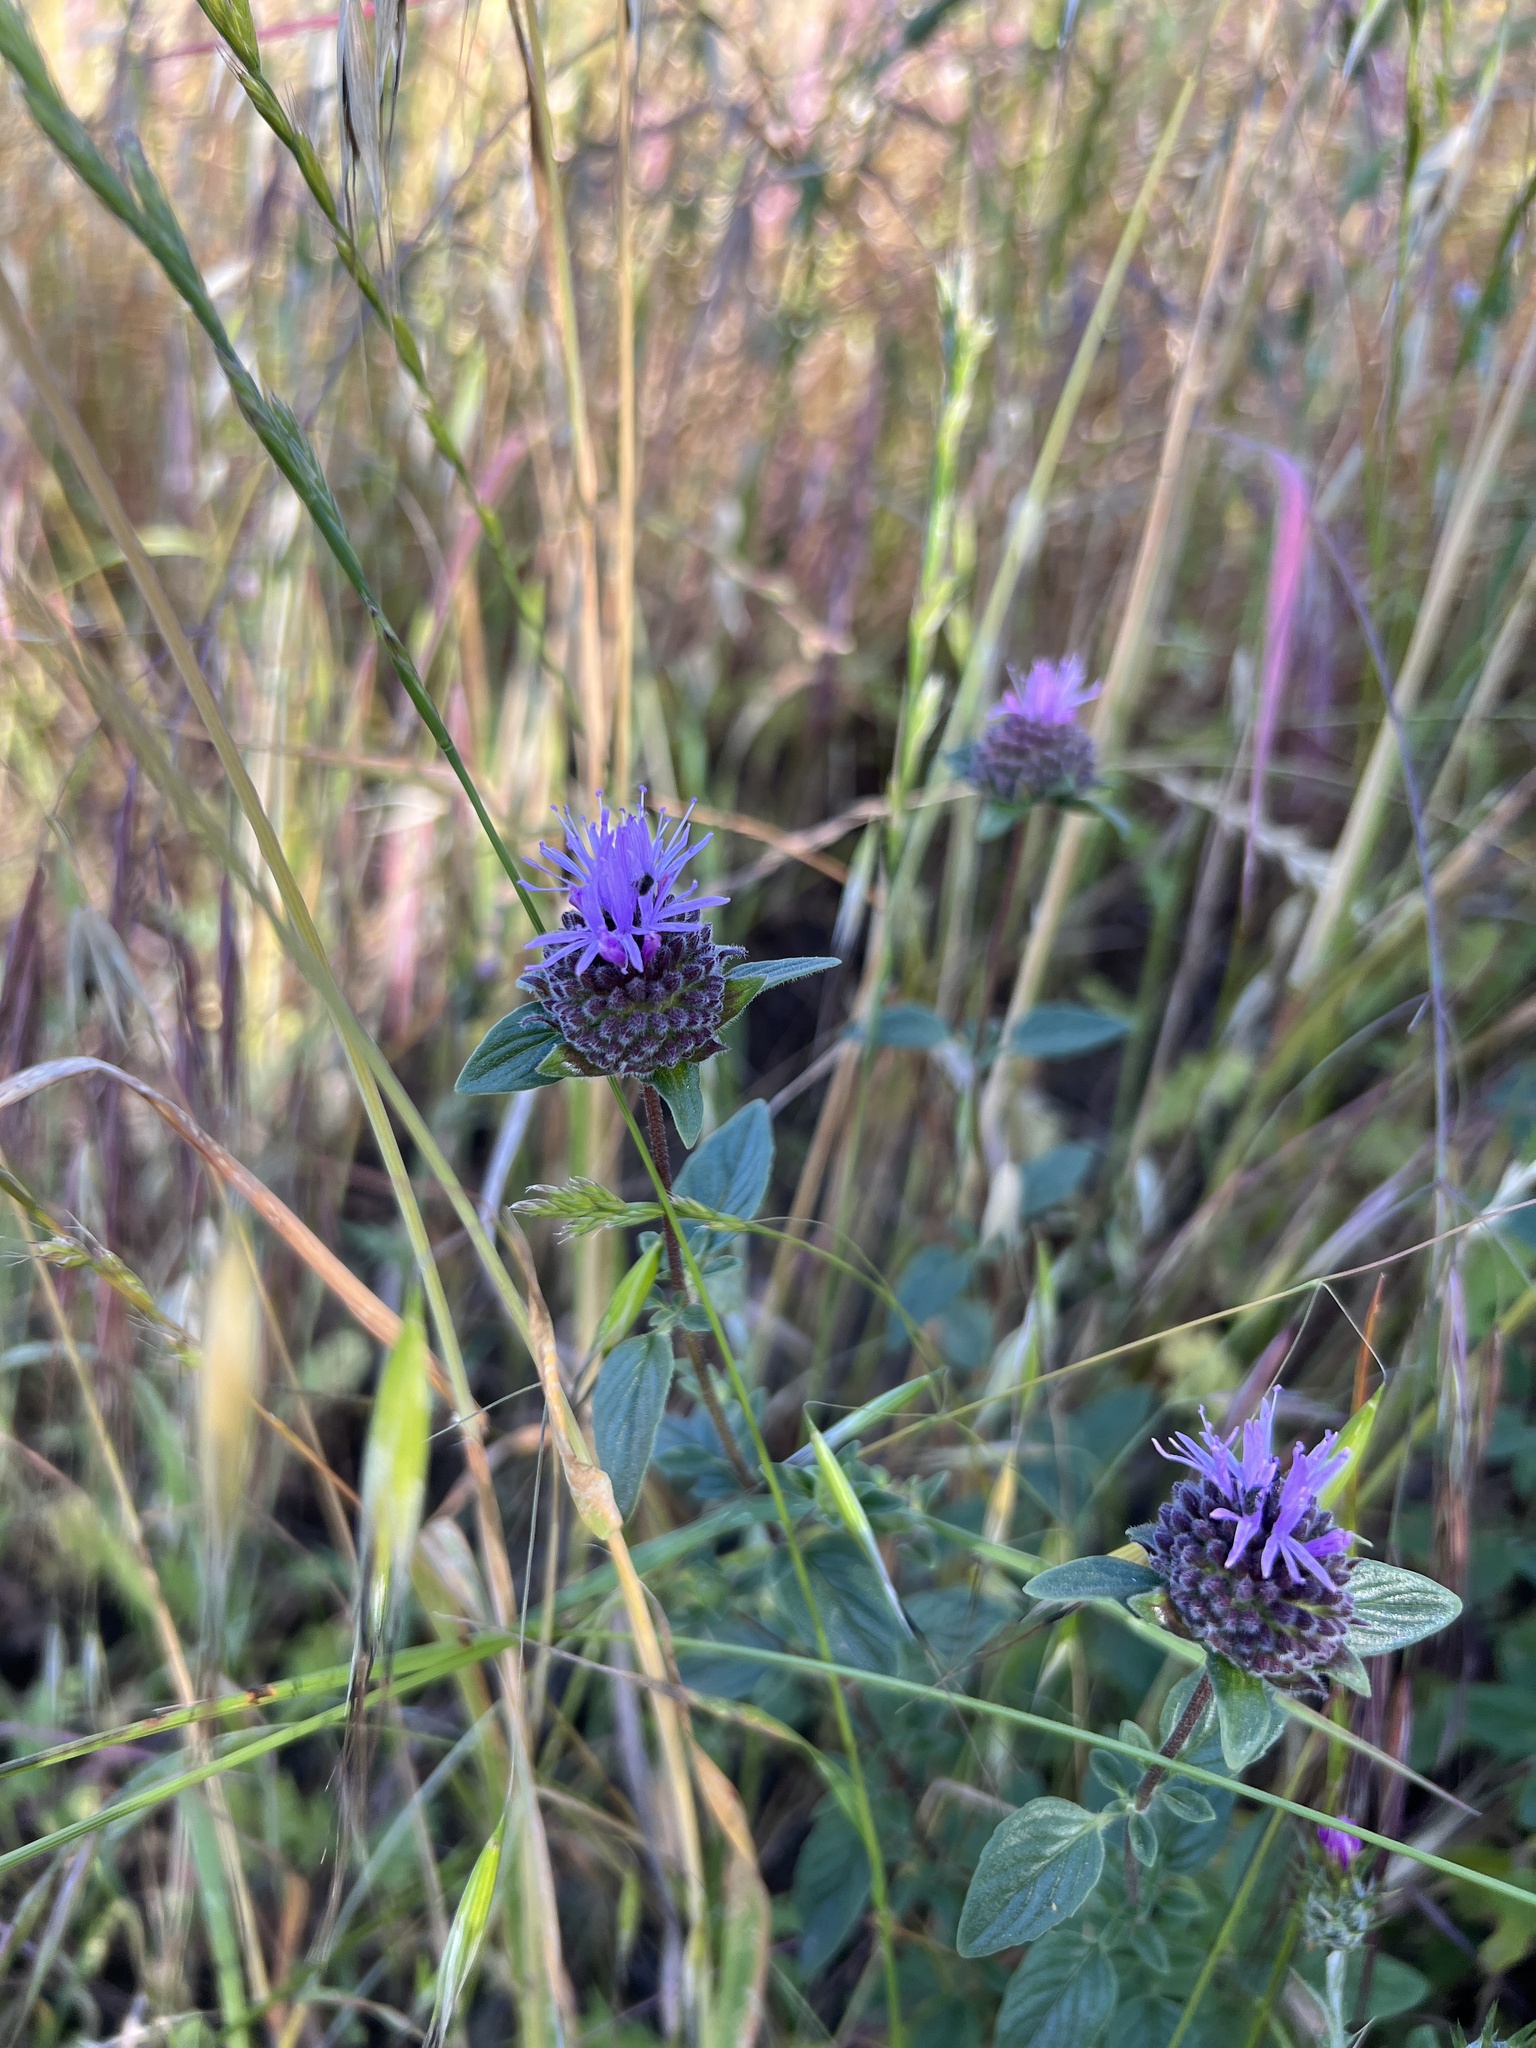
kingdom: Plantae
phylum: Tracheophyta
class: Magnoliopsida
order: Lamiales
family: Lamiaceae
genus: Monardella
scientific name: Monardella odoratissima
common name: Pacific monardella
